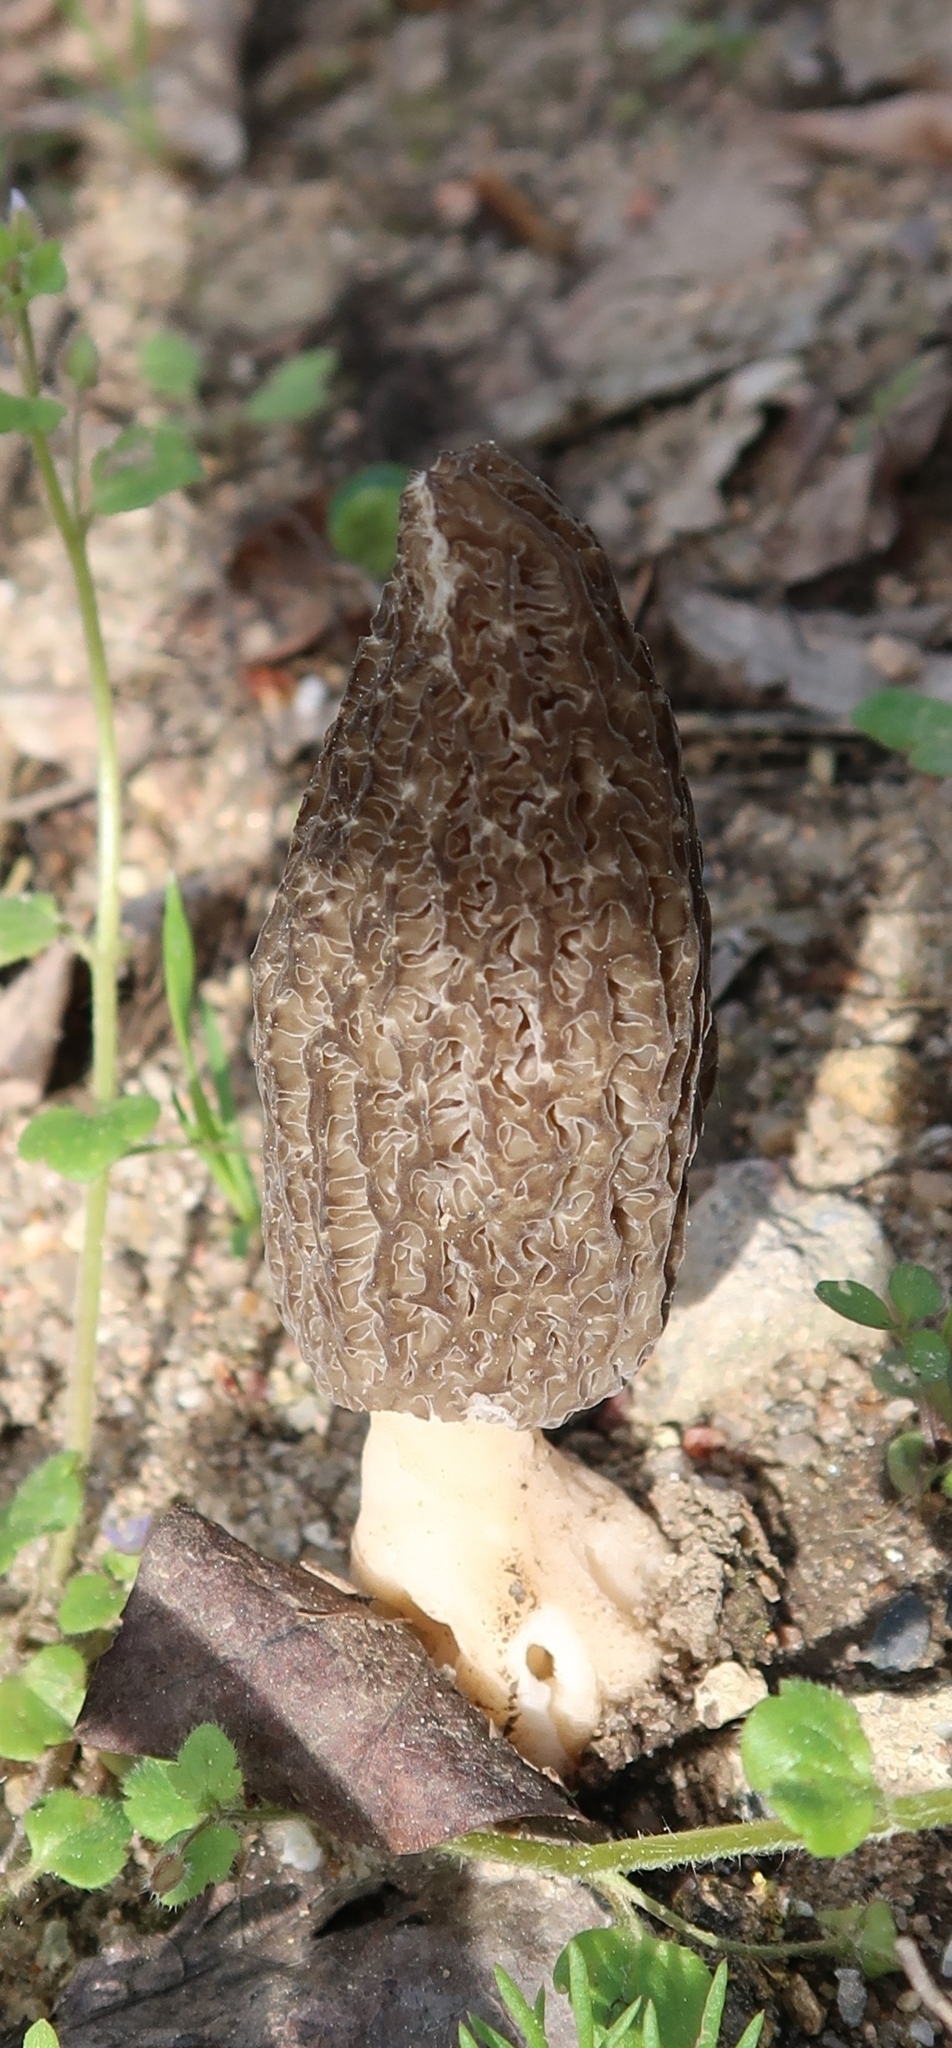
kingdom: Fungi
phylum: Ascomycota
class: Pezizomycetes
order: Pezizales
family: Morchellaceae
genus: Morchella
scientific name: Morchella importuna
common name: Landscaping black morel
